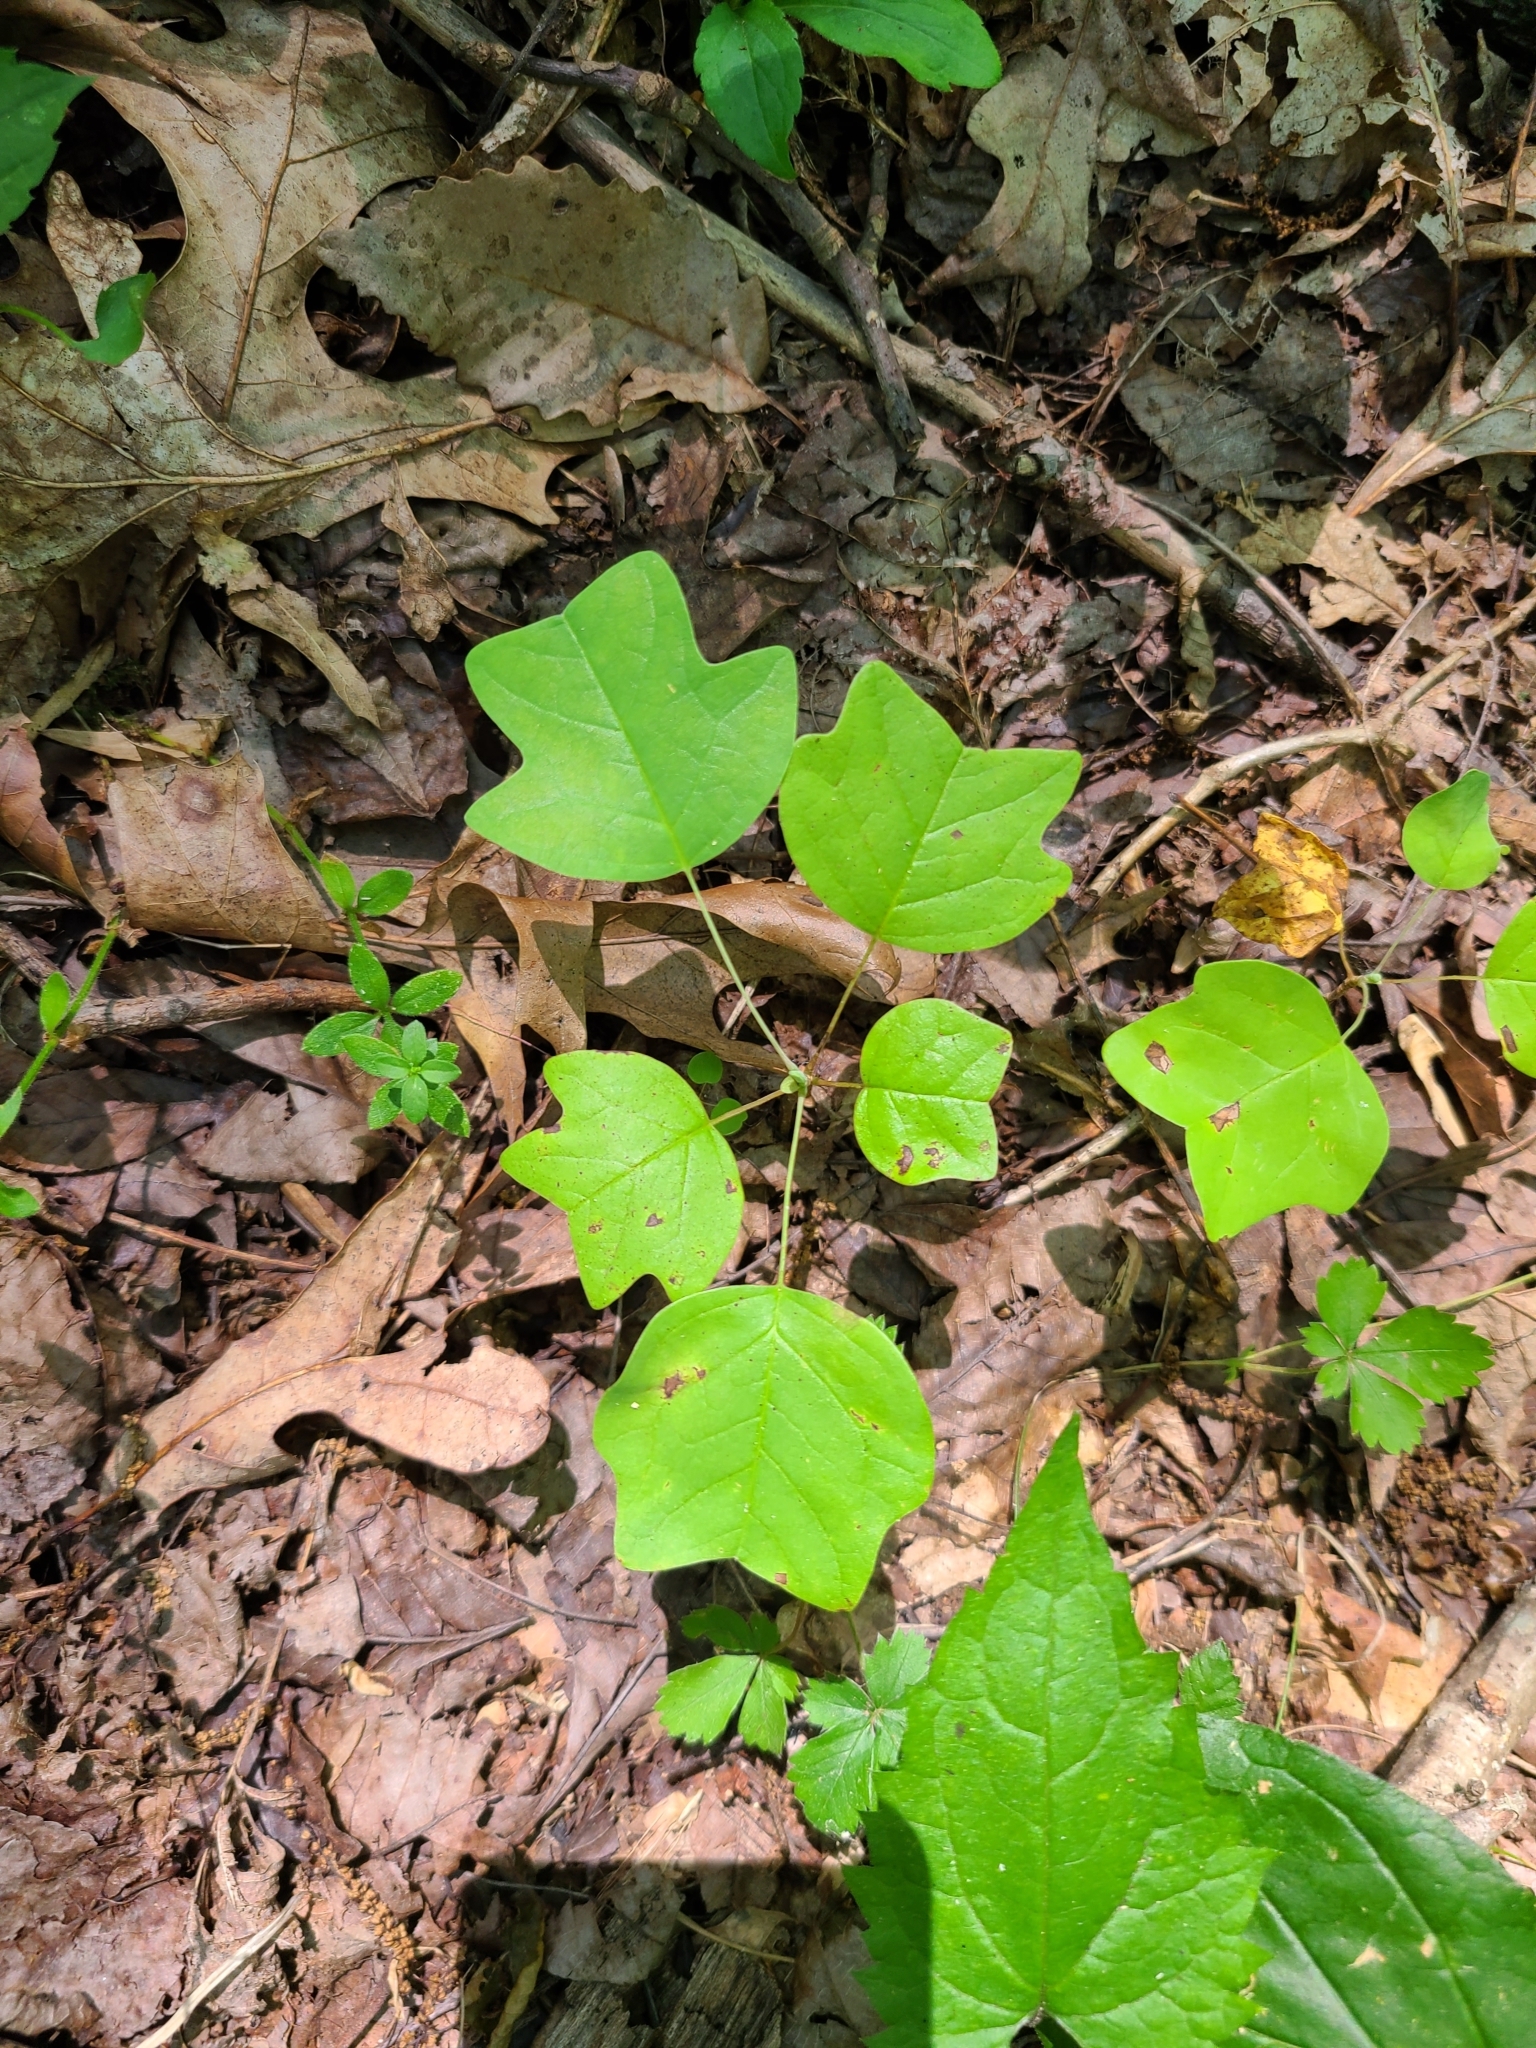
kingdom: Plantae
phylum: Tracheophyta
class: Magnoliopsida
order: Magnoliales
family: Magnoliaceae
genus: Liriodendron
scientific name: Liriodendron tulipifera
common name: Tulip tree
